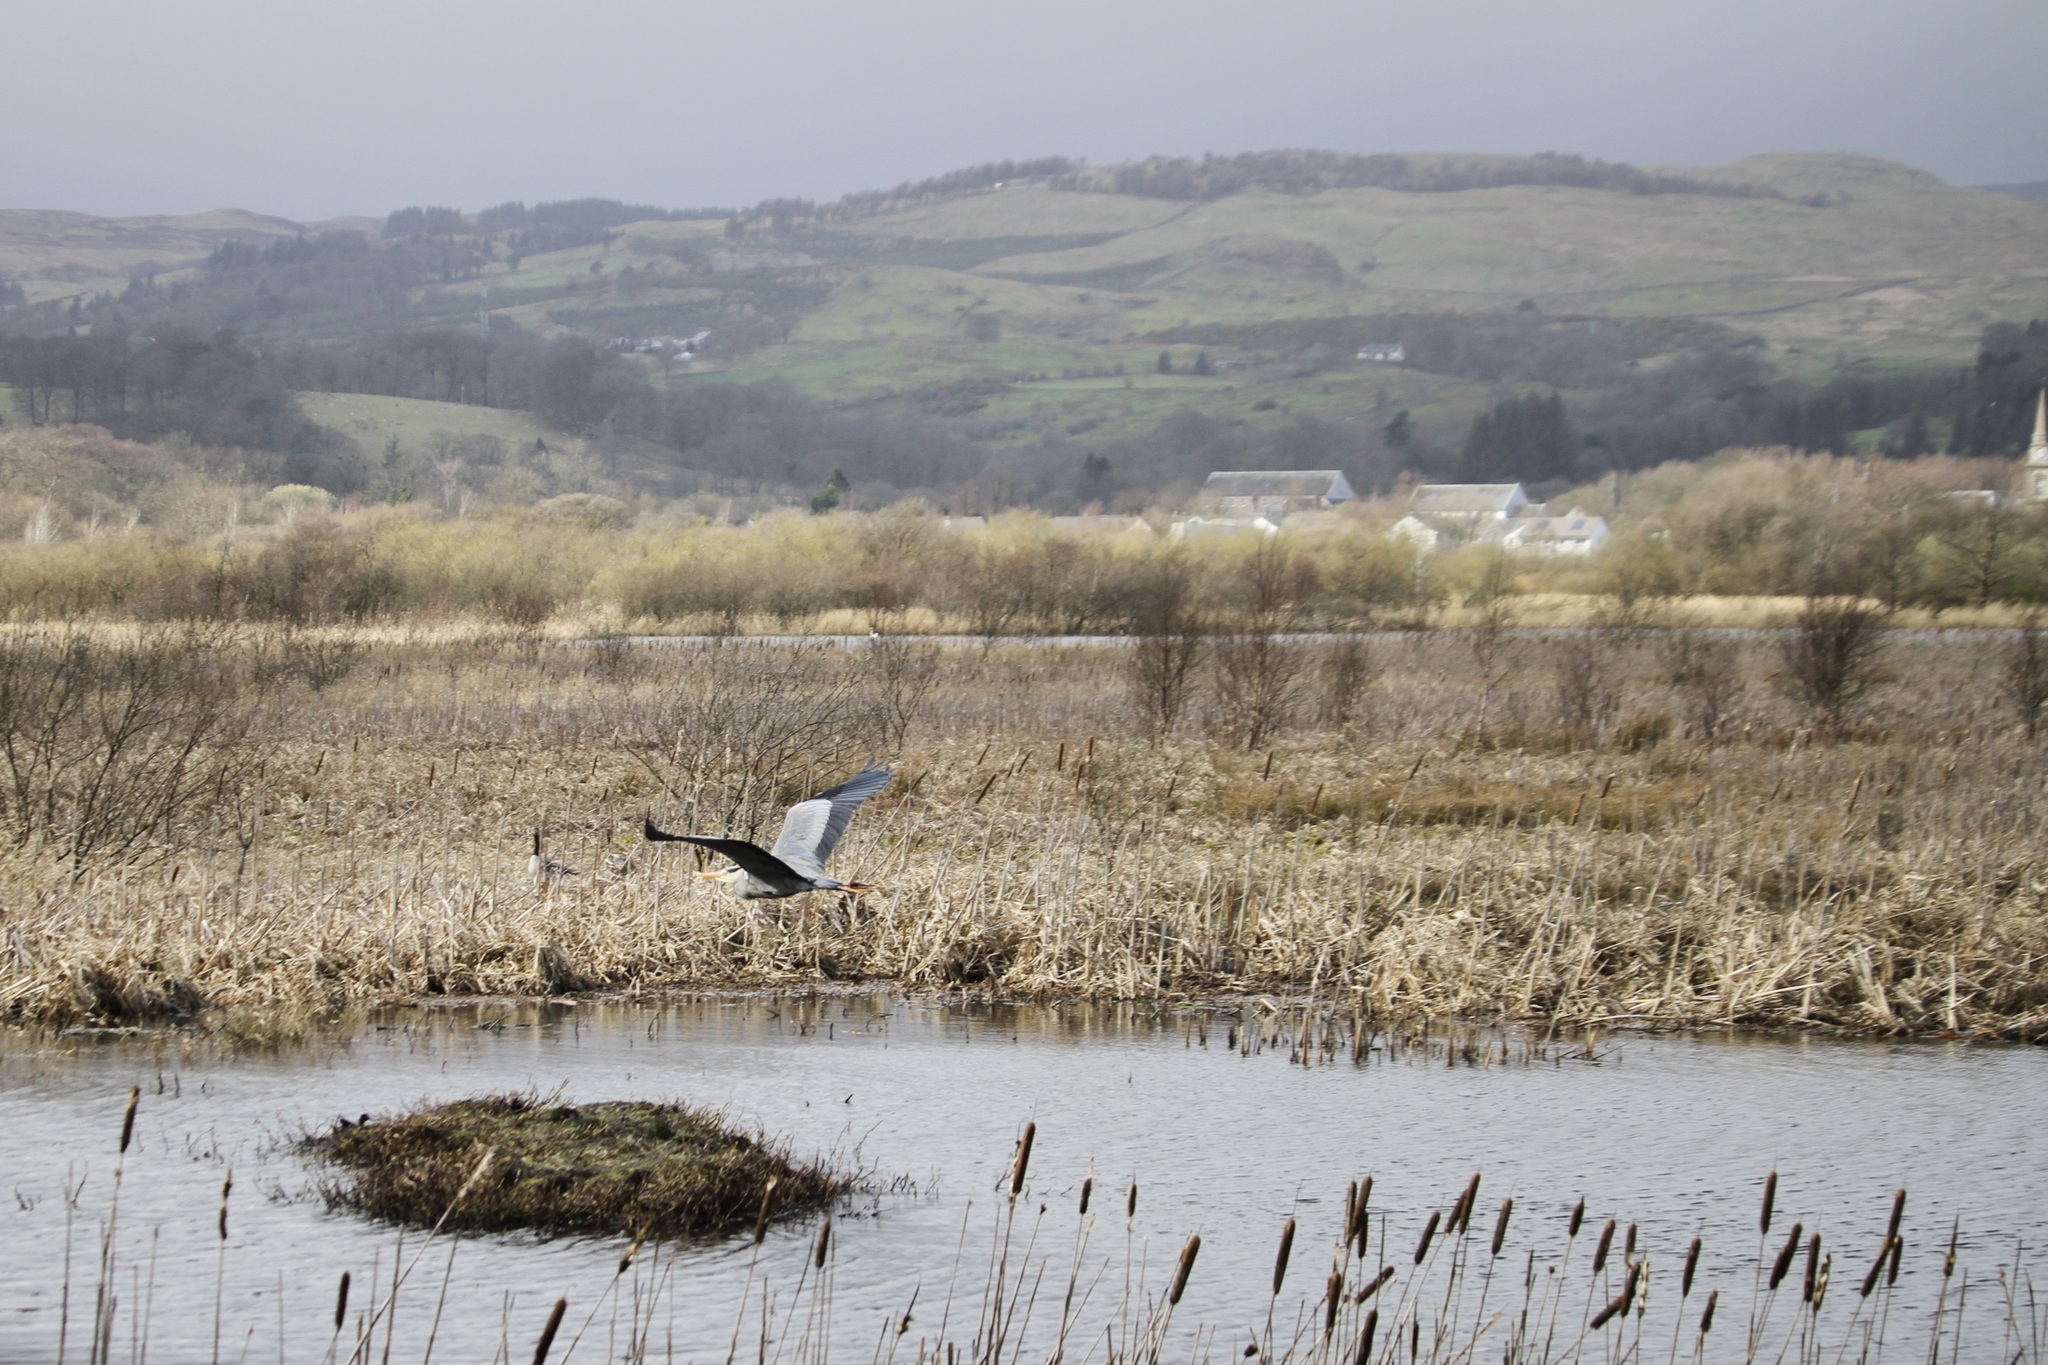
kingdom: Animalia
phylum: Chordata
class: Aves
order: Pelecaniformes
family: Ardeidae
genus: Ardea
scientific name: Ardea cinerea
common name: Grey heron
